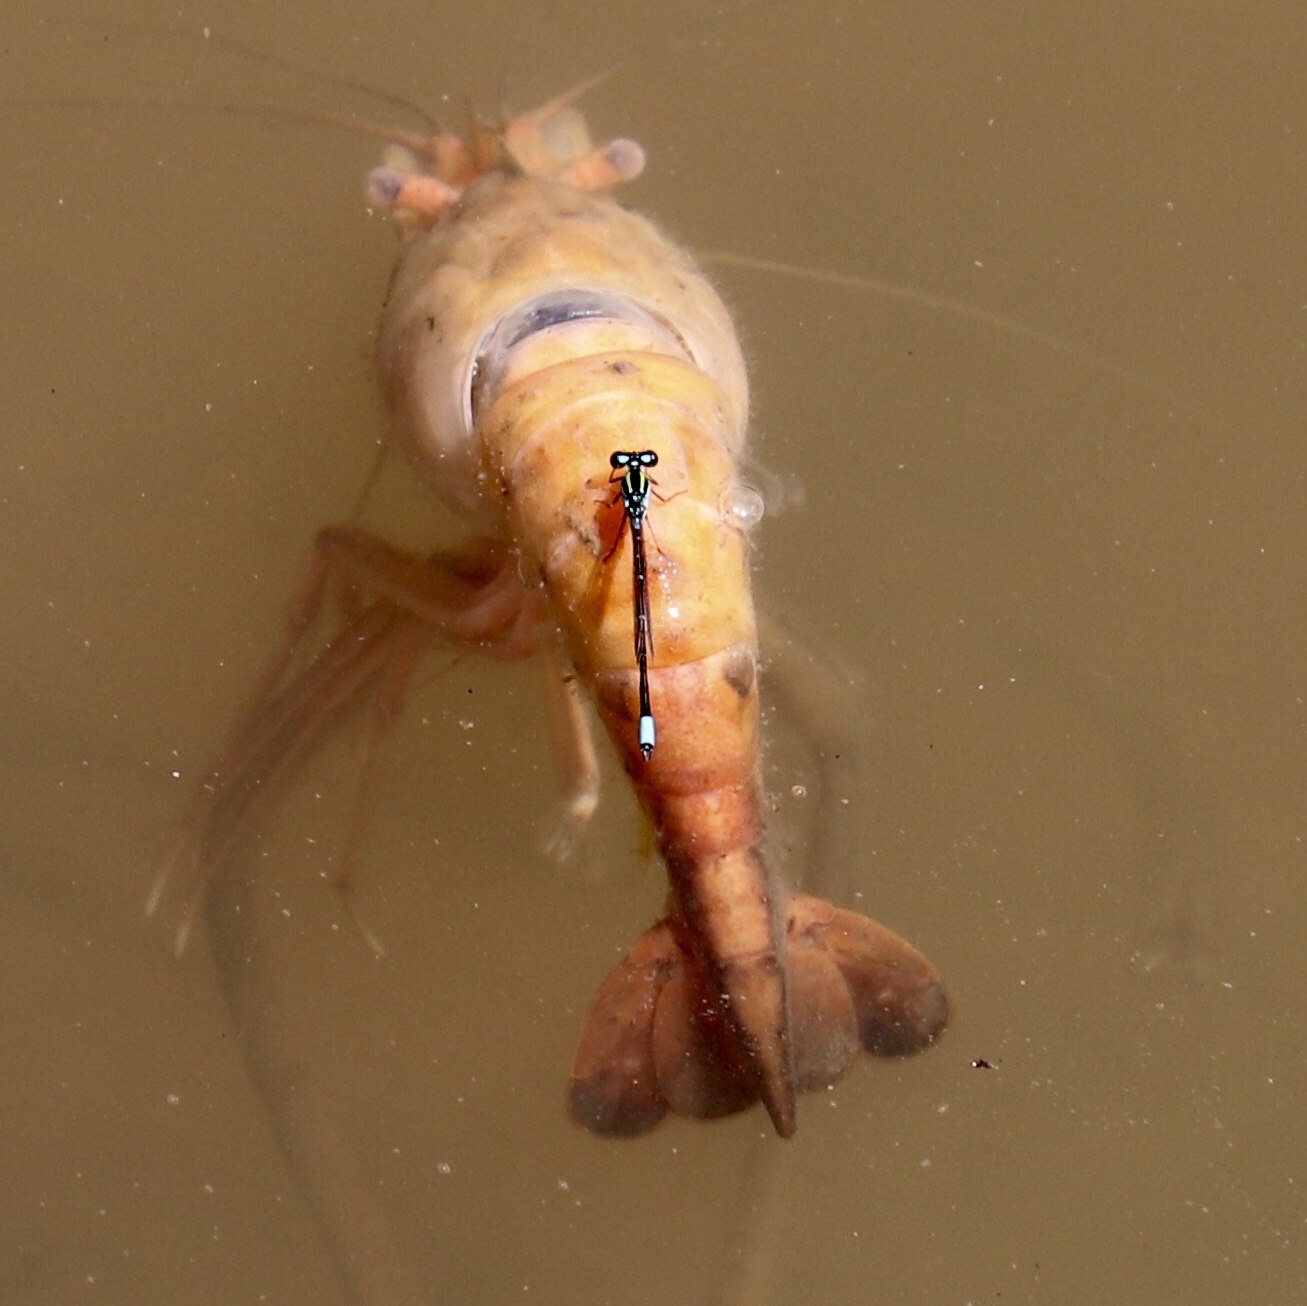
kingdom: Animalia
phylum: Arthropoda
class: Insecta
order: Odonata
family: Coenagrionidae
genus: Neoerythromma
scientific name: Neoerythromma cultellatum
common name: Caribbean yellowface
